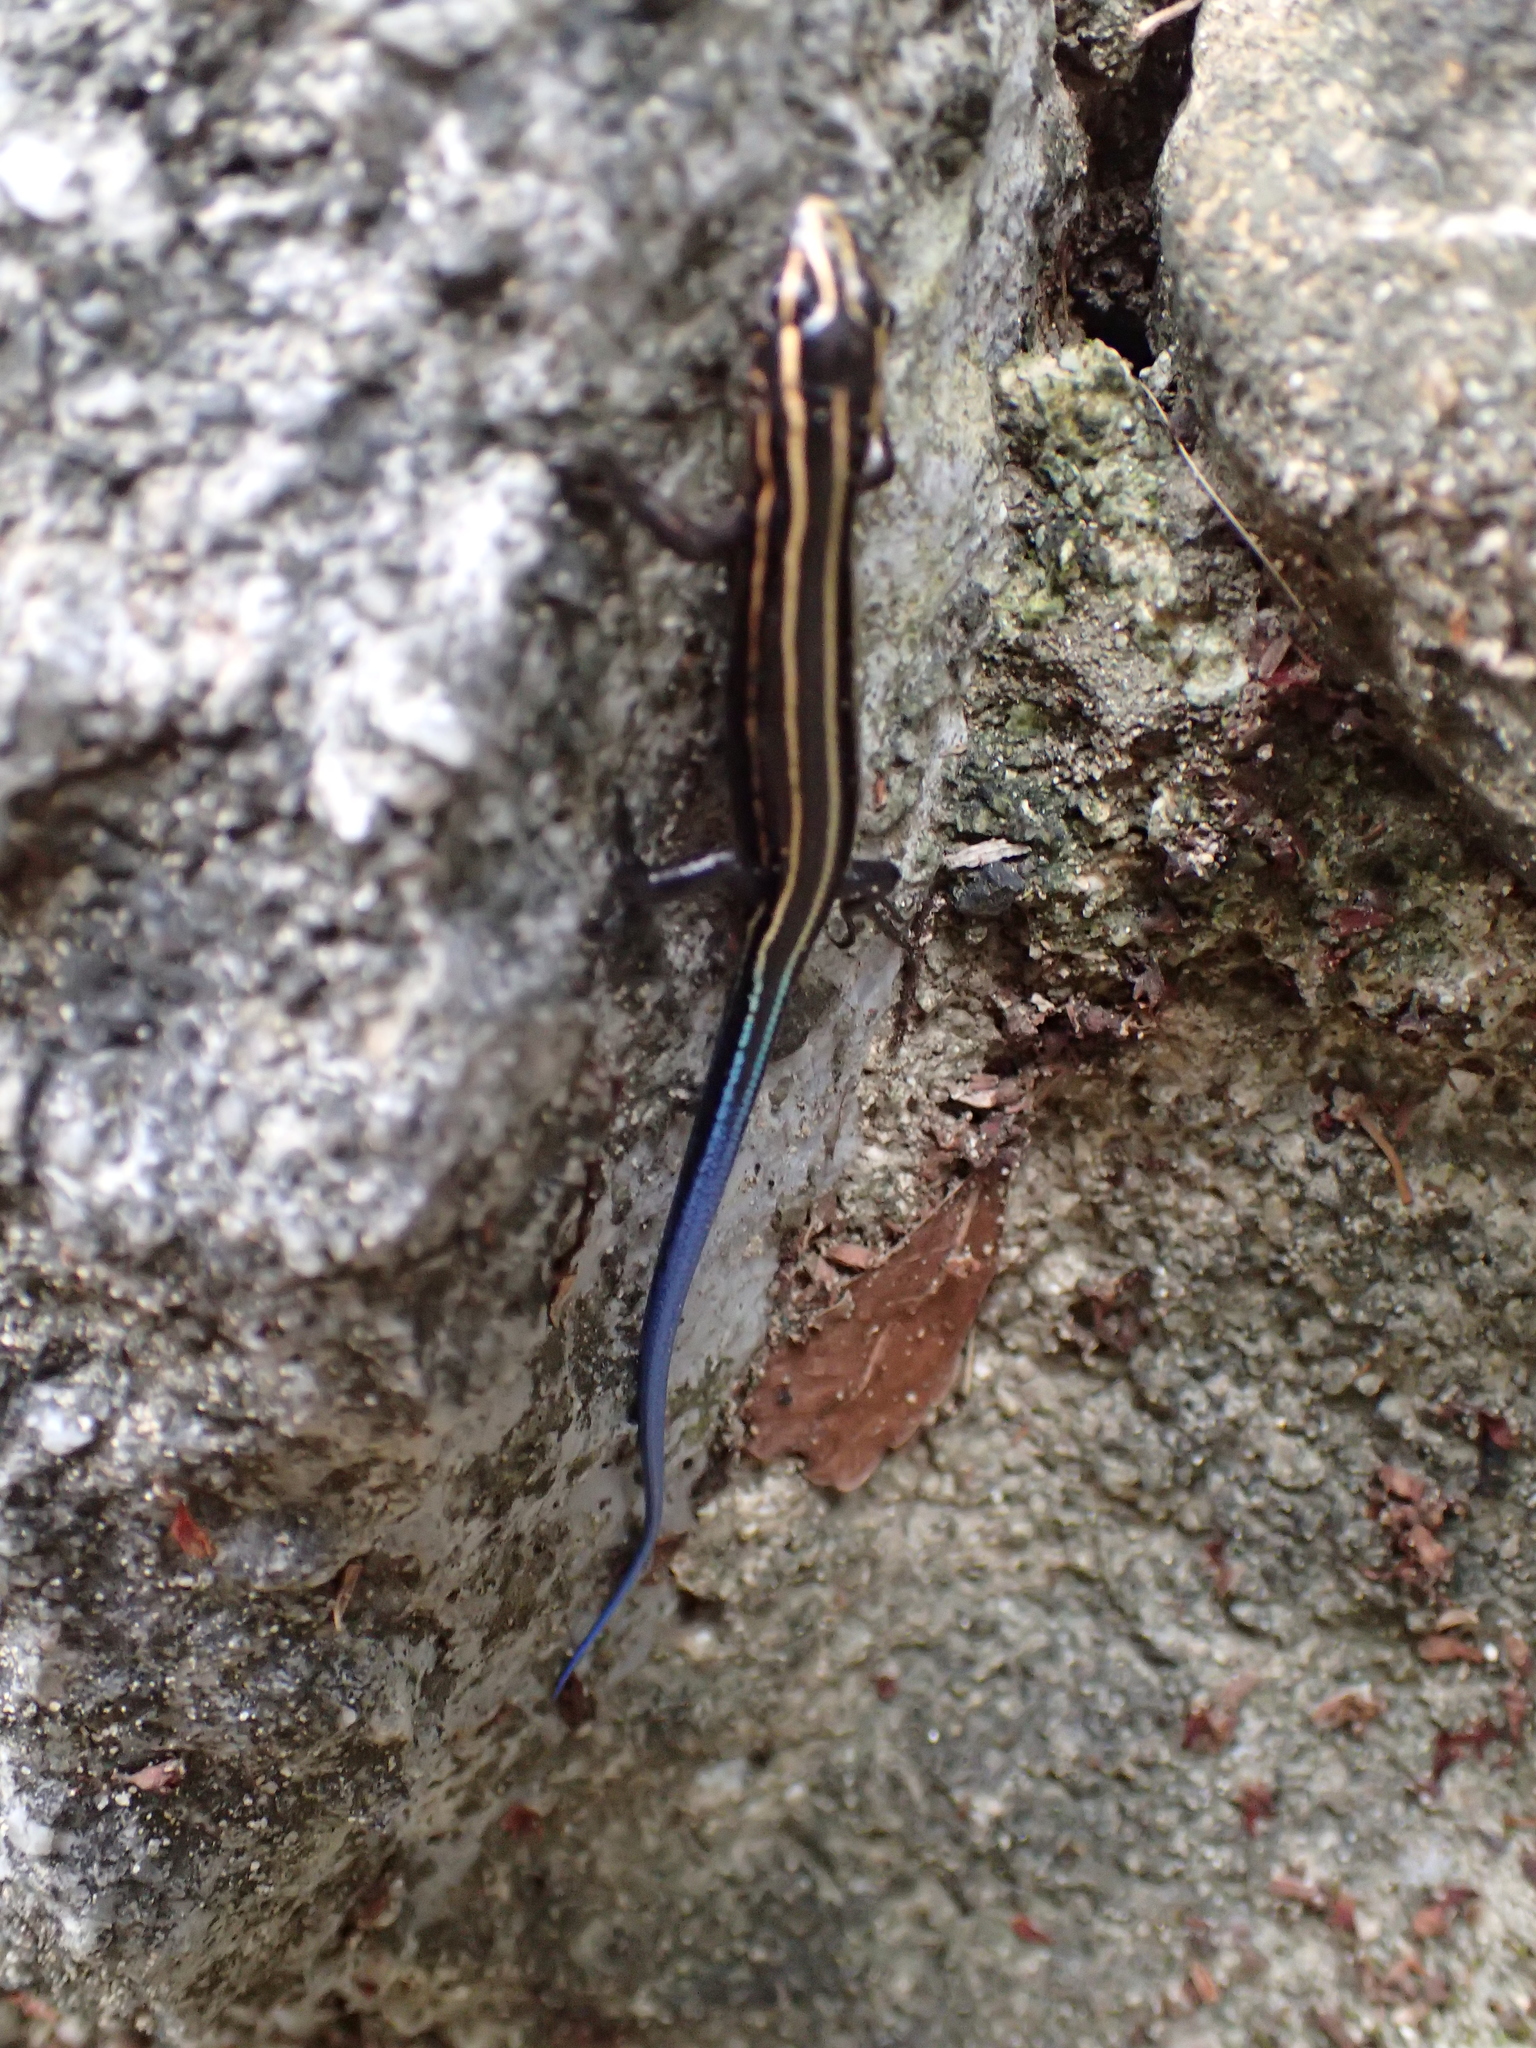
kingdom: Animalia
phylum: Chordata
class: Squamata
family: Scincidae
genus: Plestiodon
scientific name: Plestiodon stimpsonii
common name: Stimpson's skink
